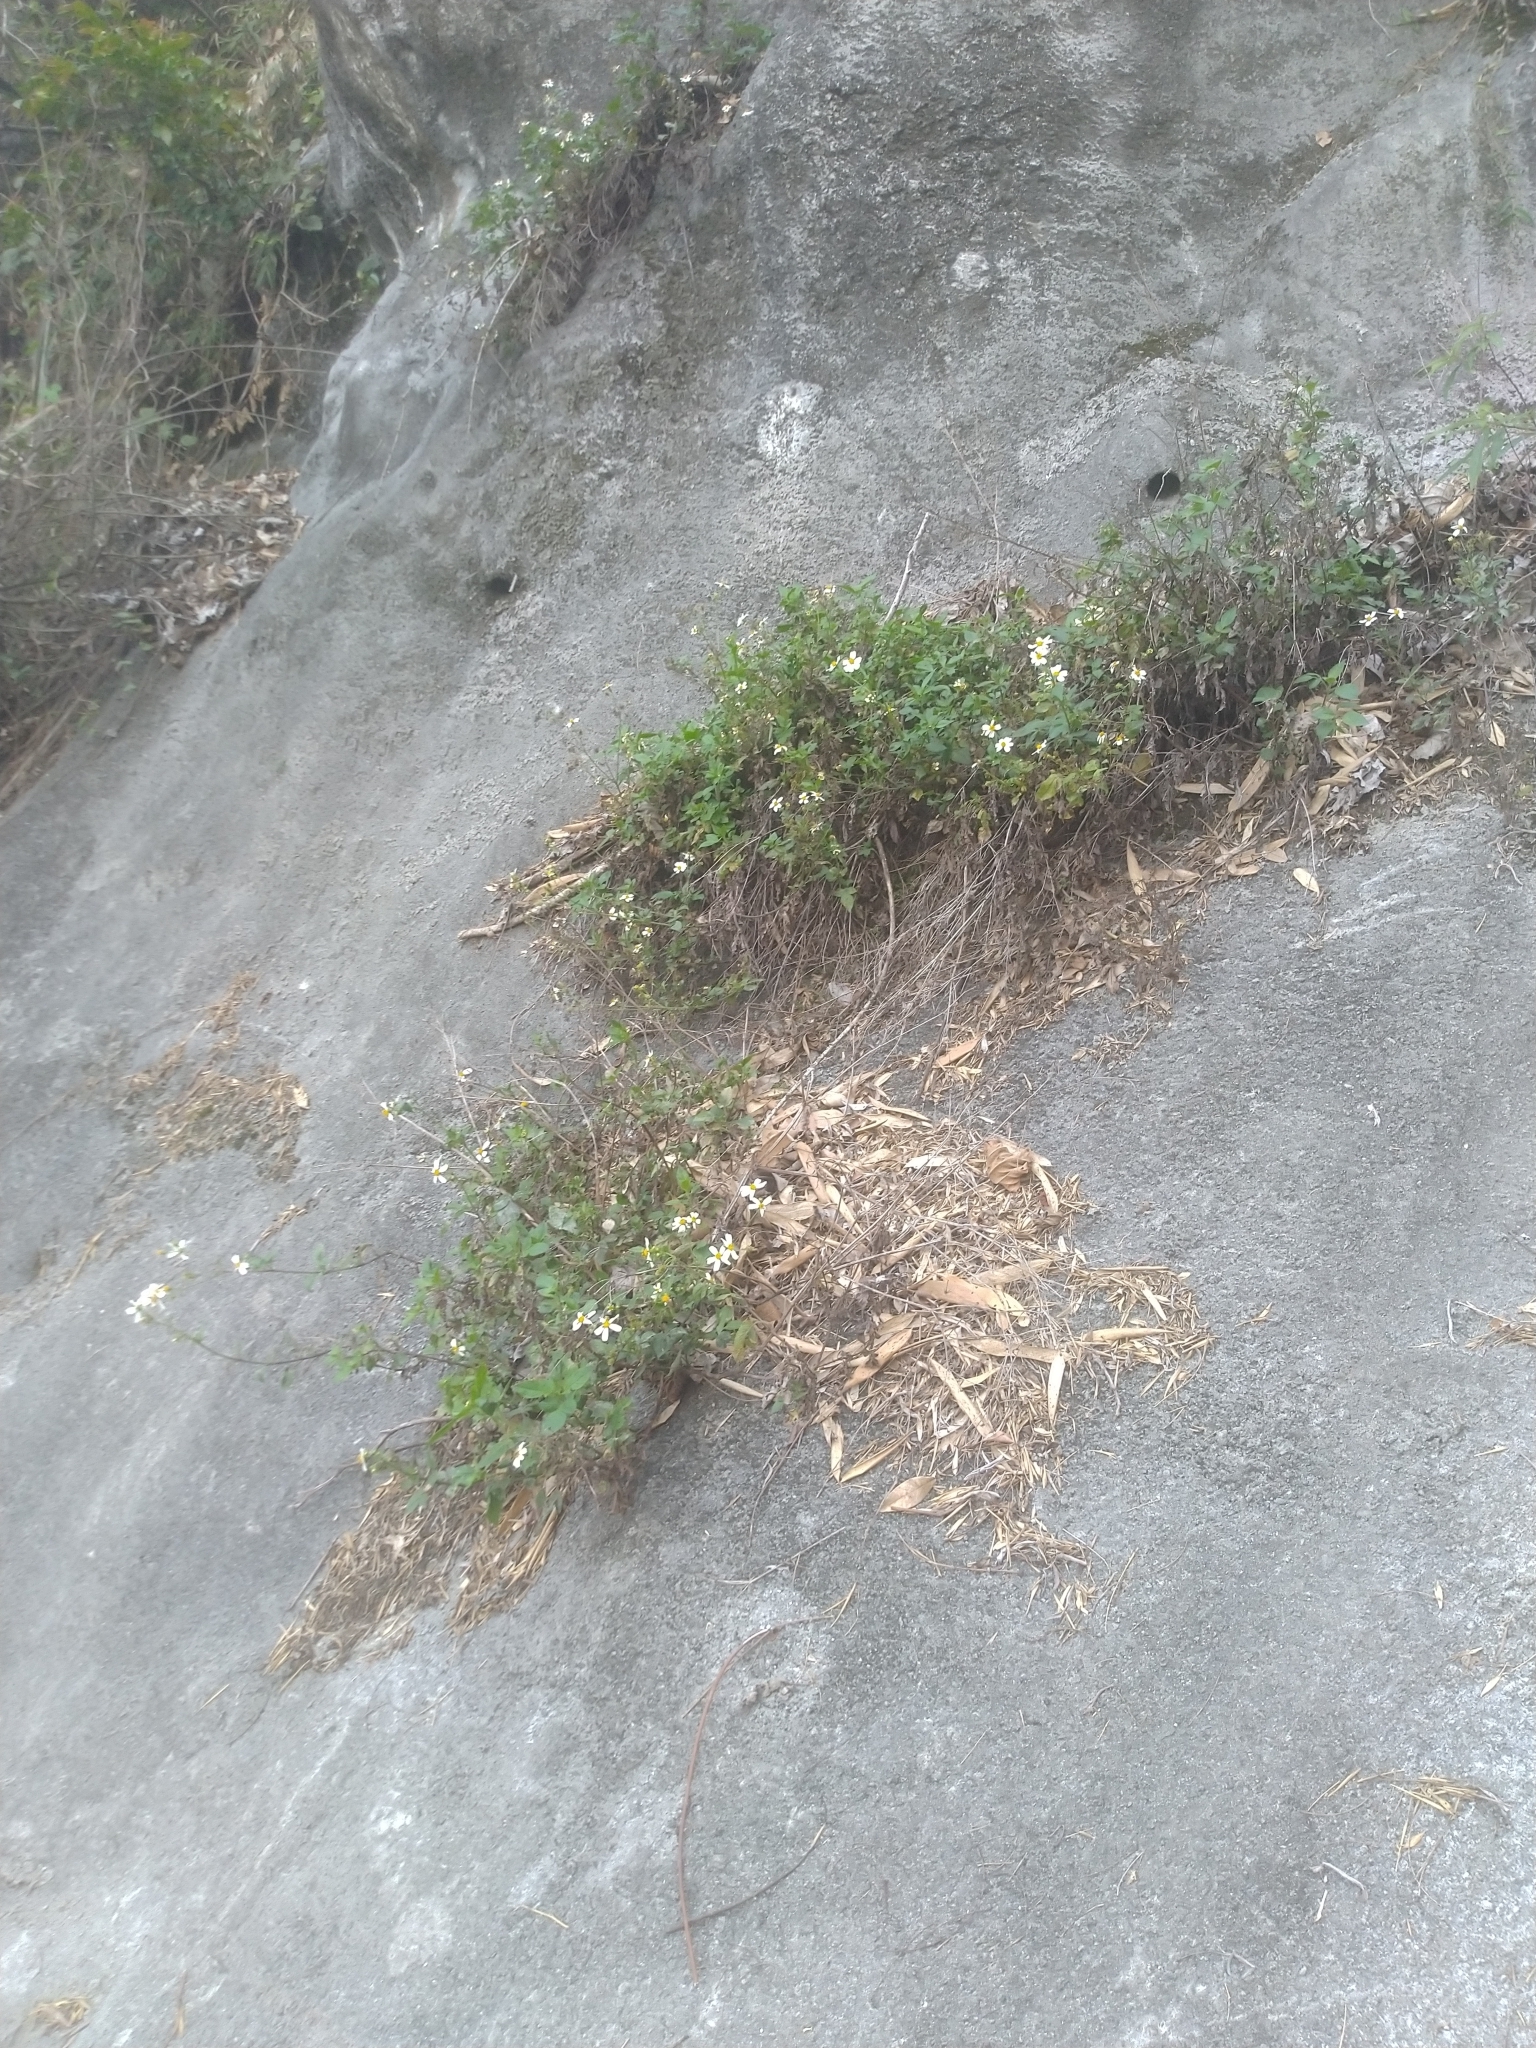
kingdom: Plantae
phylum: Tracheophyta
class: Magnoliopsida
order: Asterales
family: Asteraceae
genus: Bidens
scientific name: Bidens alba
